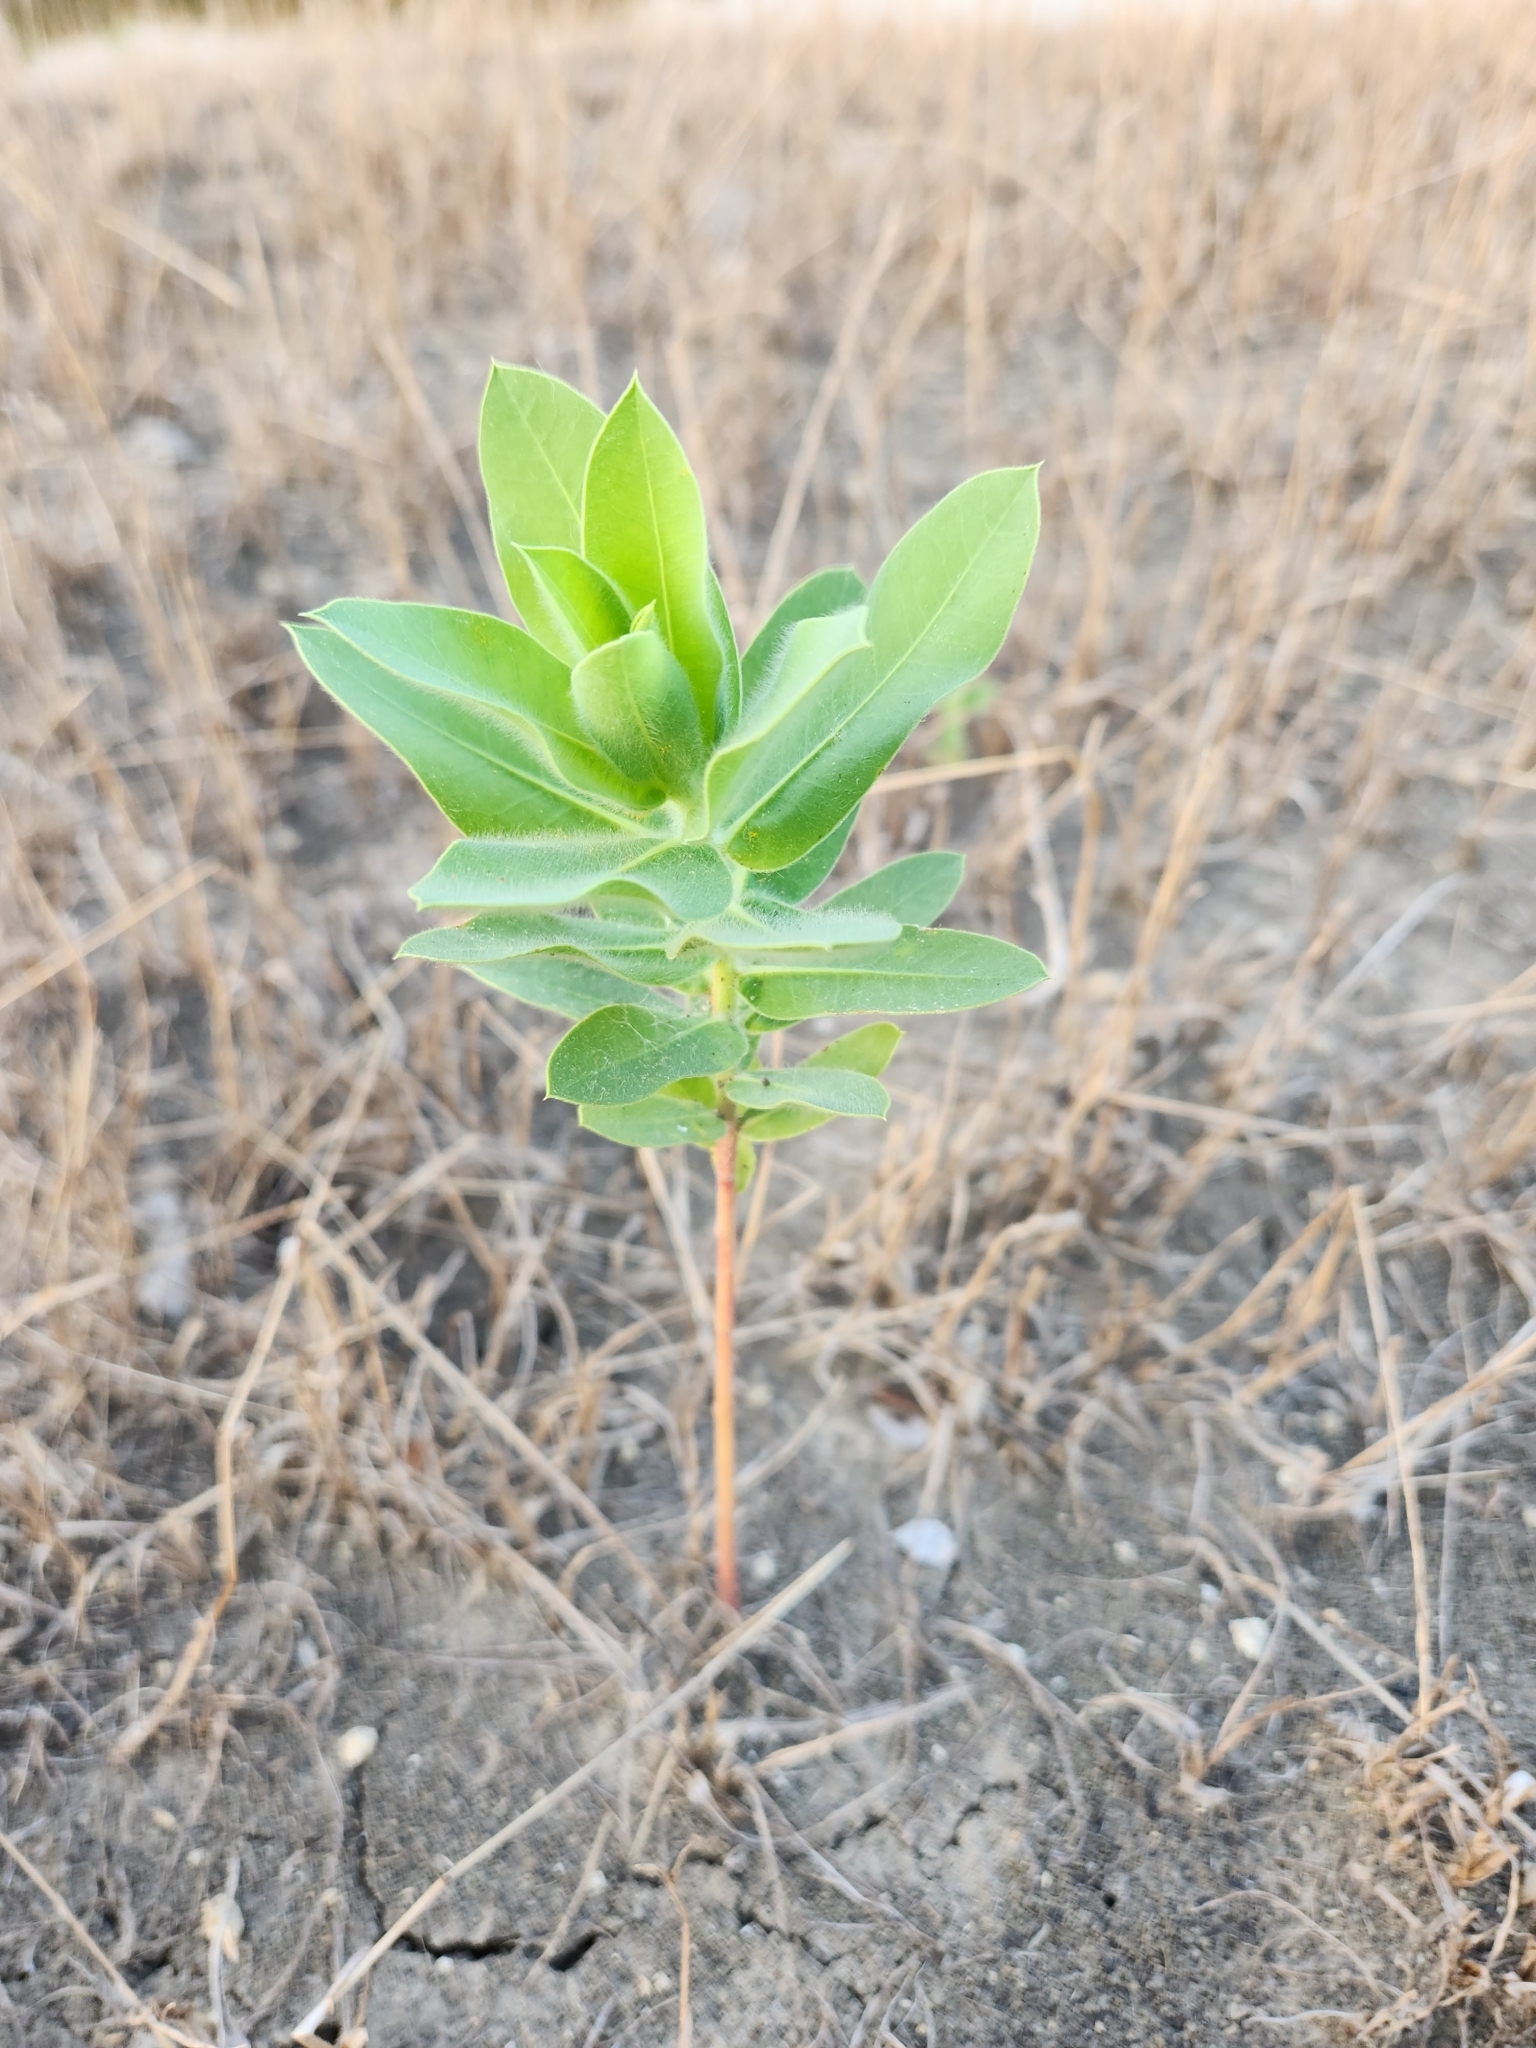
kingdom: Plantae
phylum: Tracheophyta
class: Magnoliopsida
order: Malpighiales
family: Euphorbiaceae
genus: Euphorbia
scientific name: Euphorbia bicolor
